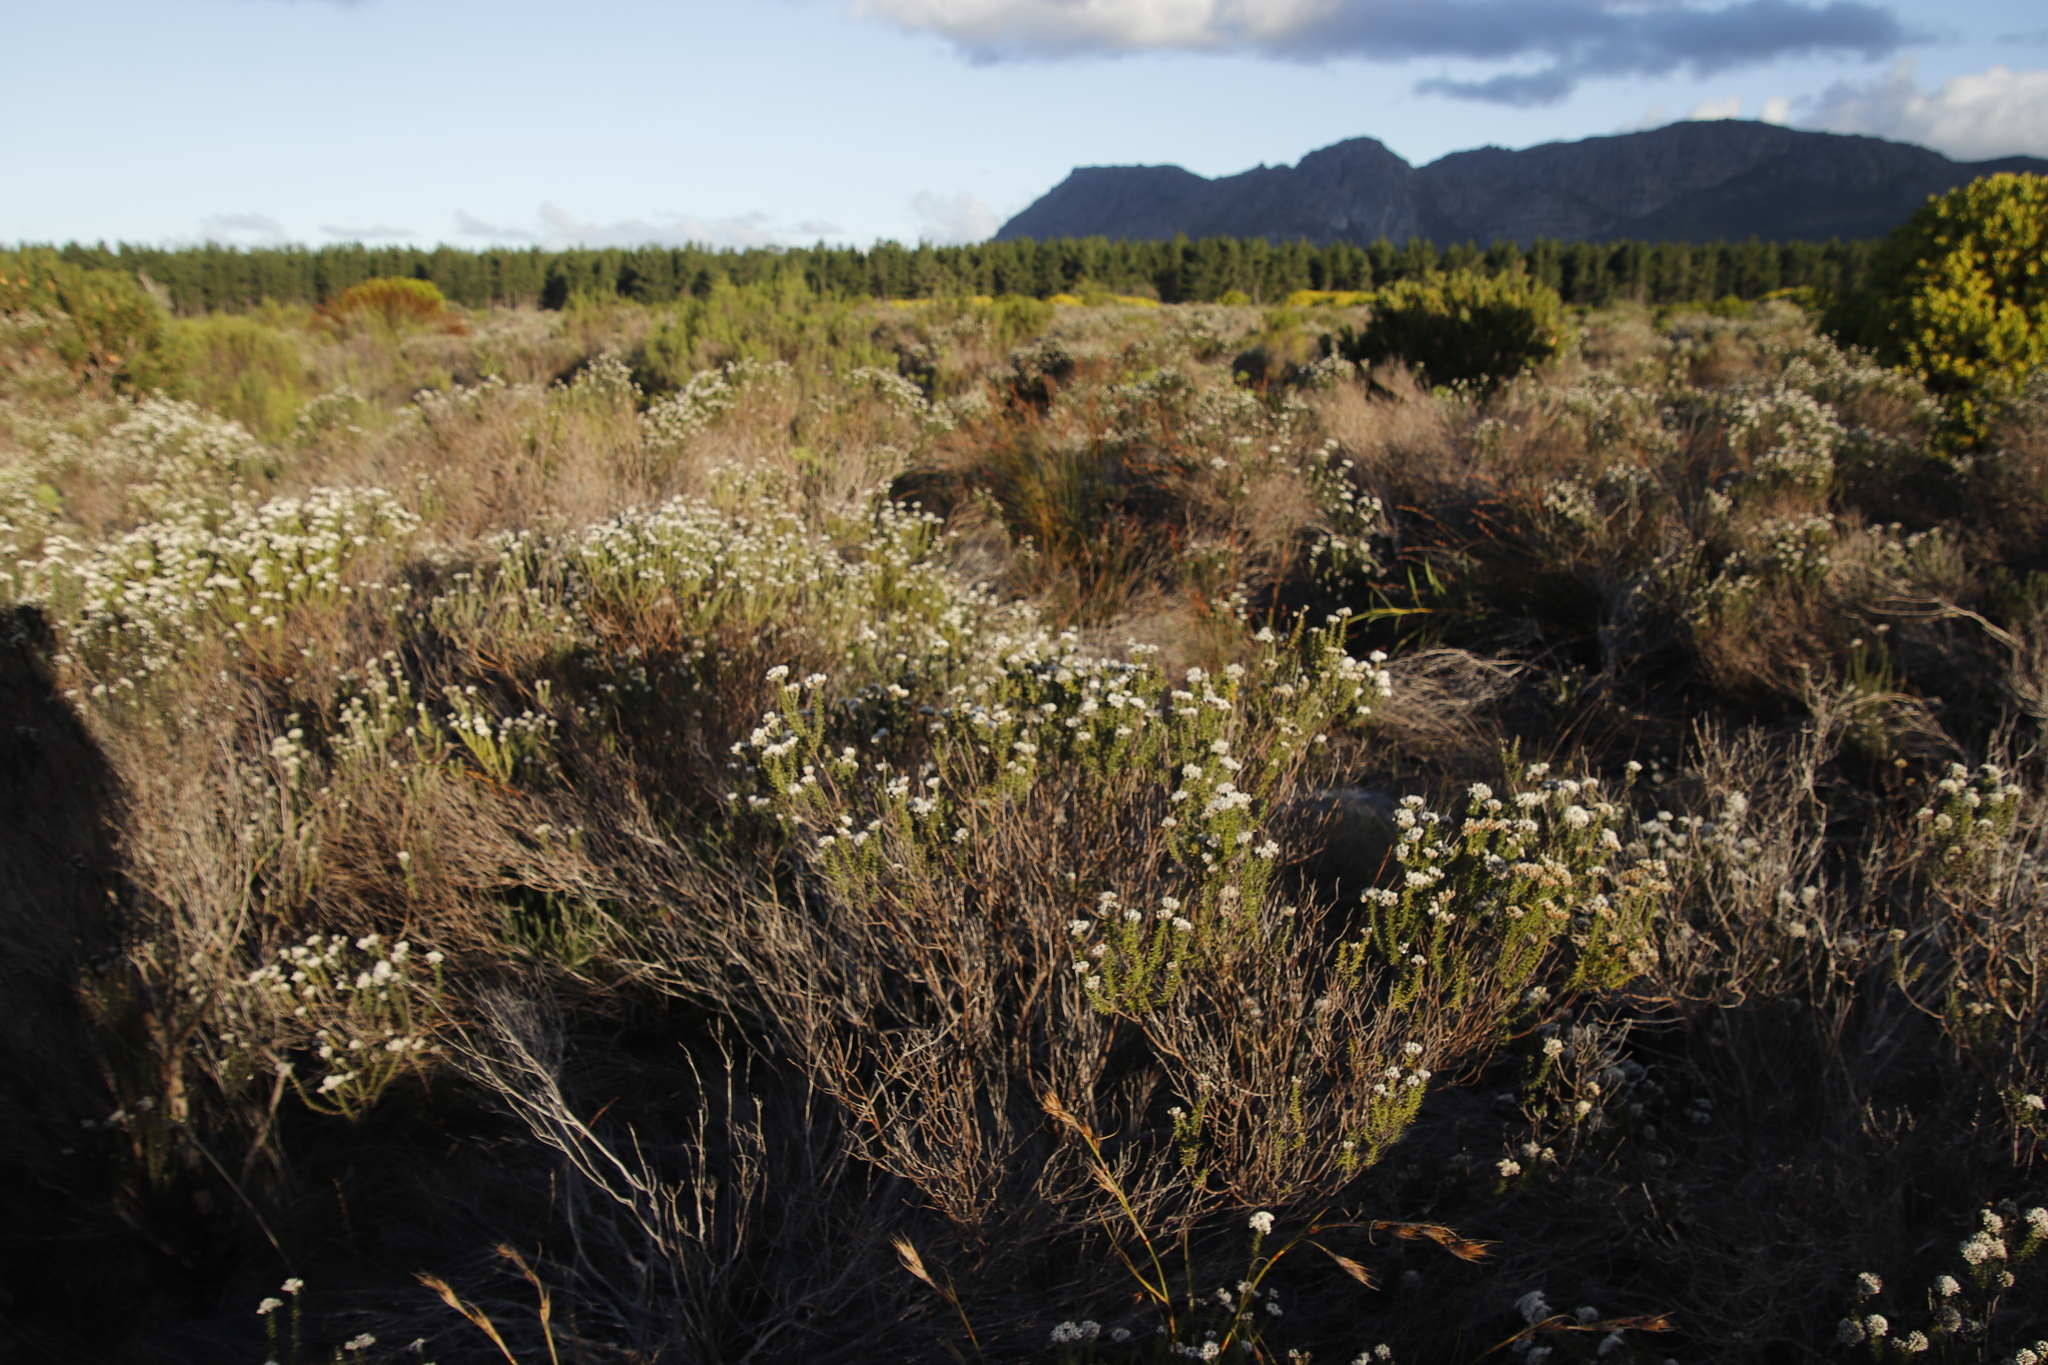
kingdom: Plantae
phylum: Tracheophyta
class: Magnoliopsida
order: Asterales
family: Asteraceae
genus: Metalasia
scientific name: Metalasia densa
